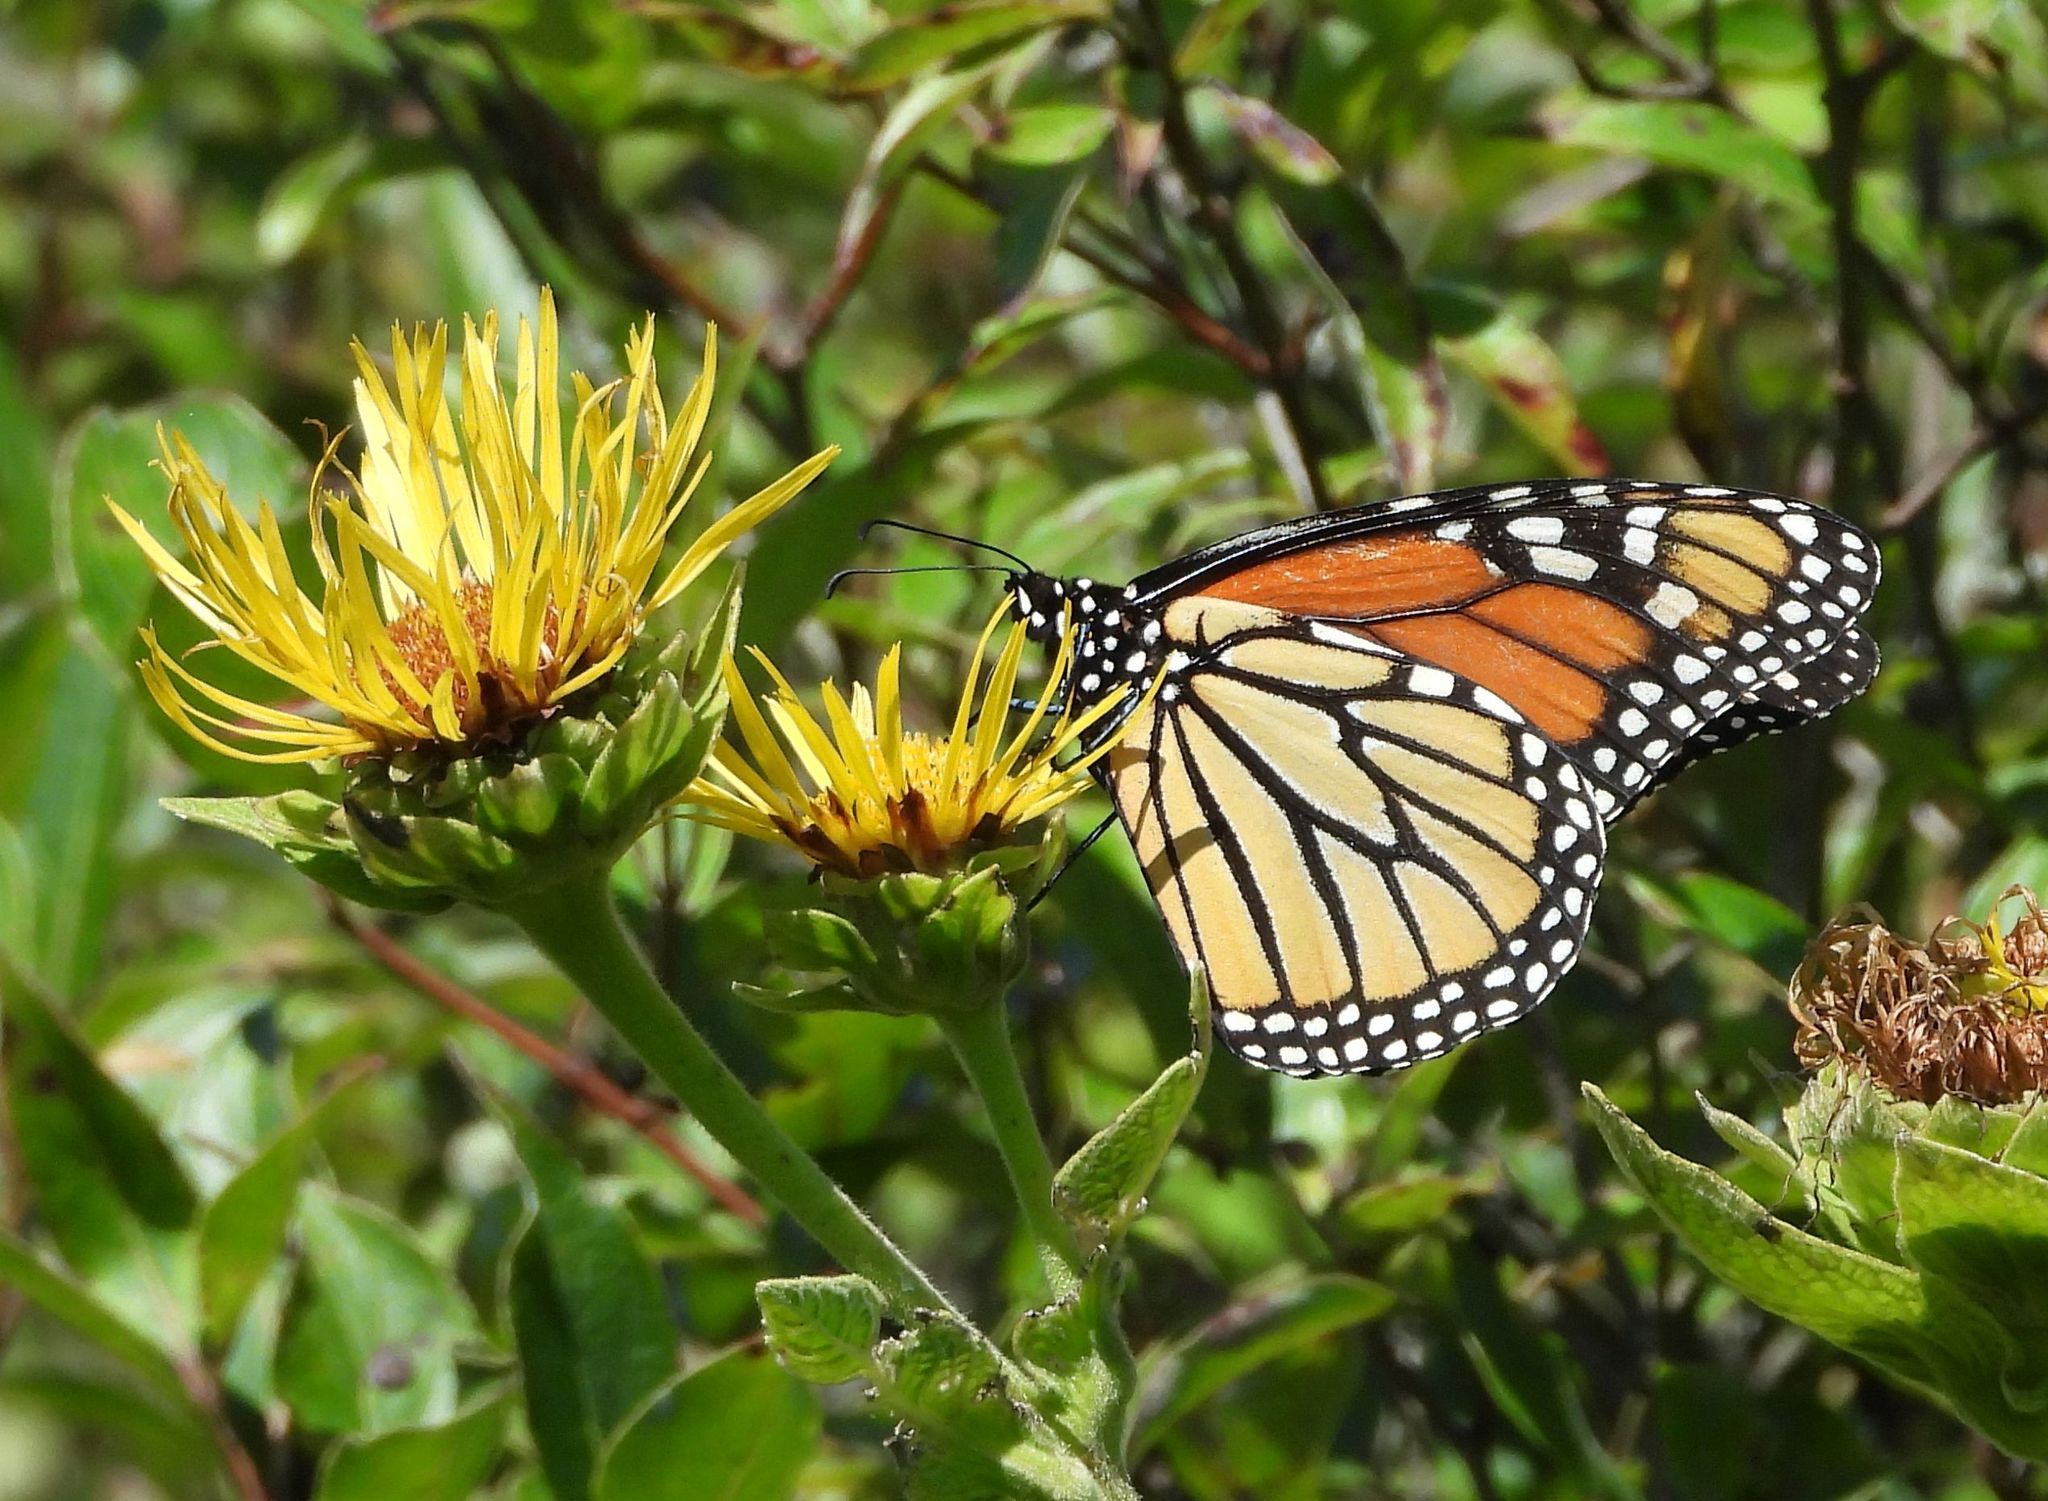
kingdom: Animalia
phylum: Arthropoda
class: Insecta
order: Lepidoptera
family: Nymphalidae
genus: Danaus
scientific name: Danaus plexippus
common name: Monarch
